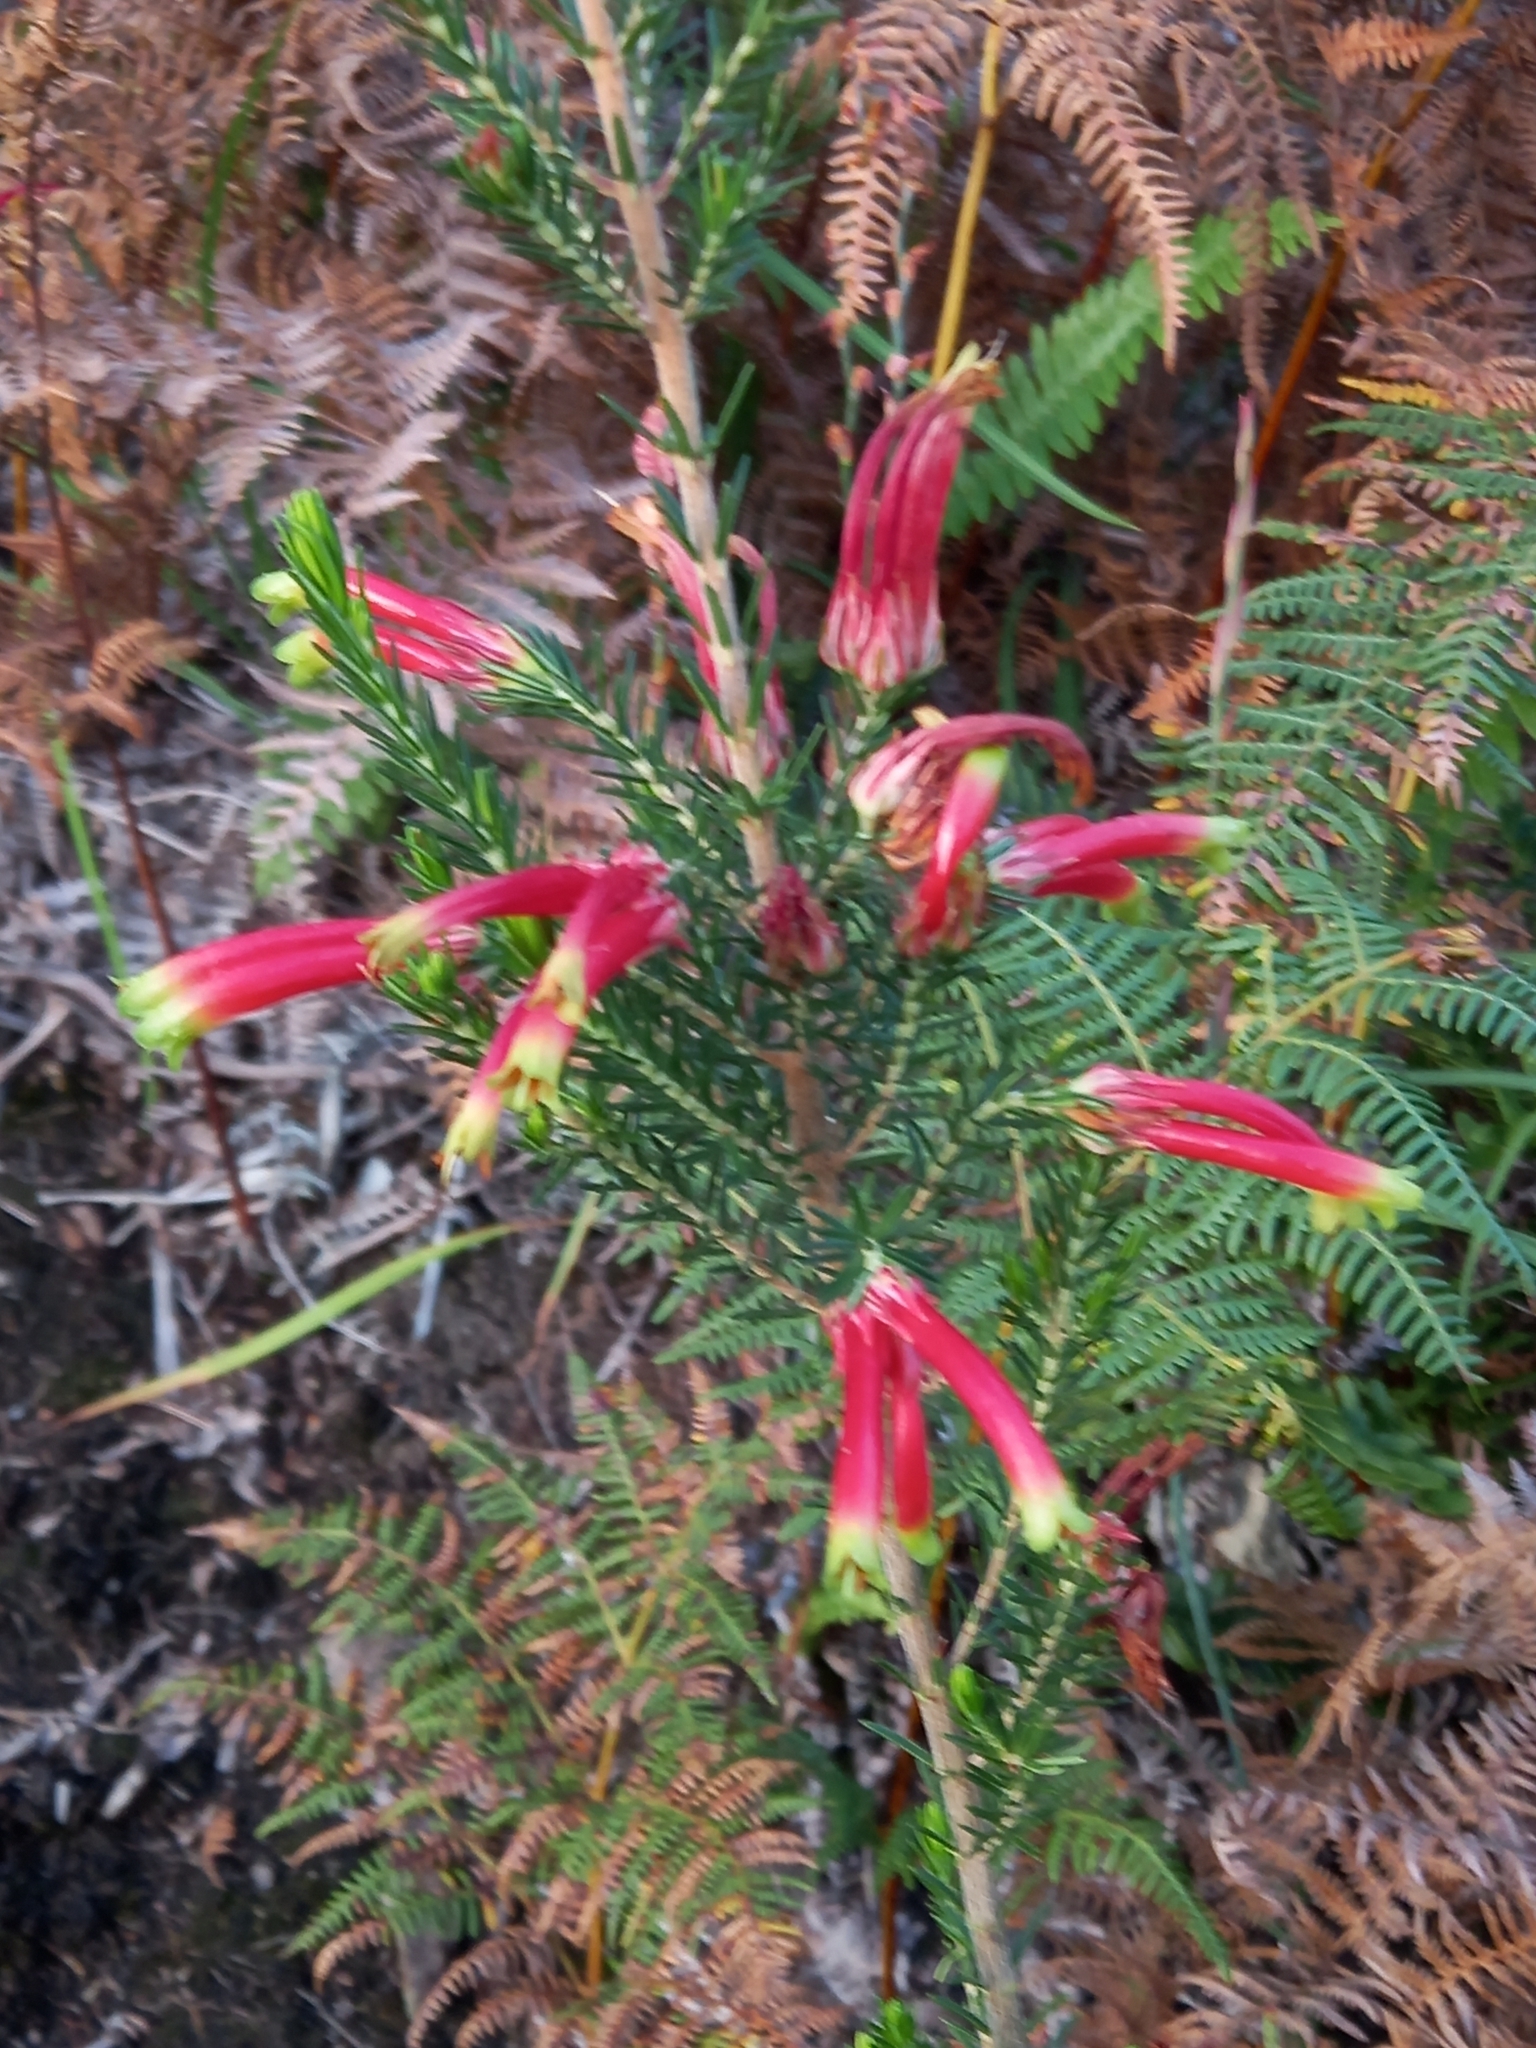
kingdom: Plantae
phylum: Tracheophyta
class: Magnoliopsida
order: Ericales
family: Ericaceae
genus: Erica
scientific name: Erica unicolor
